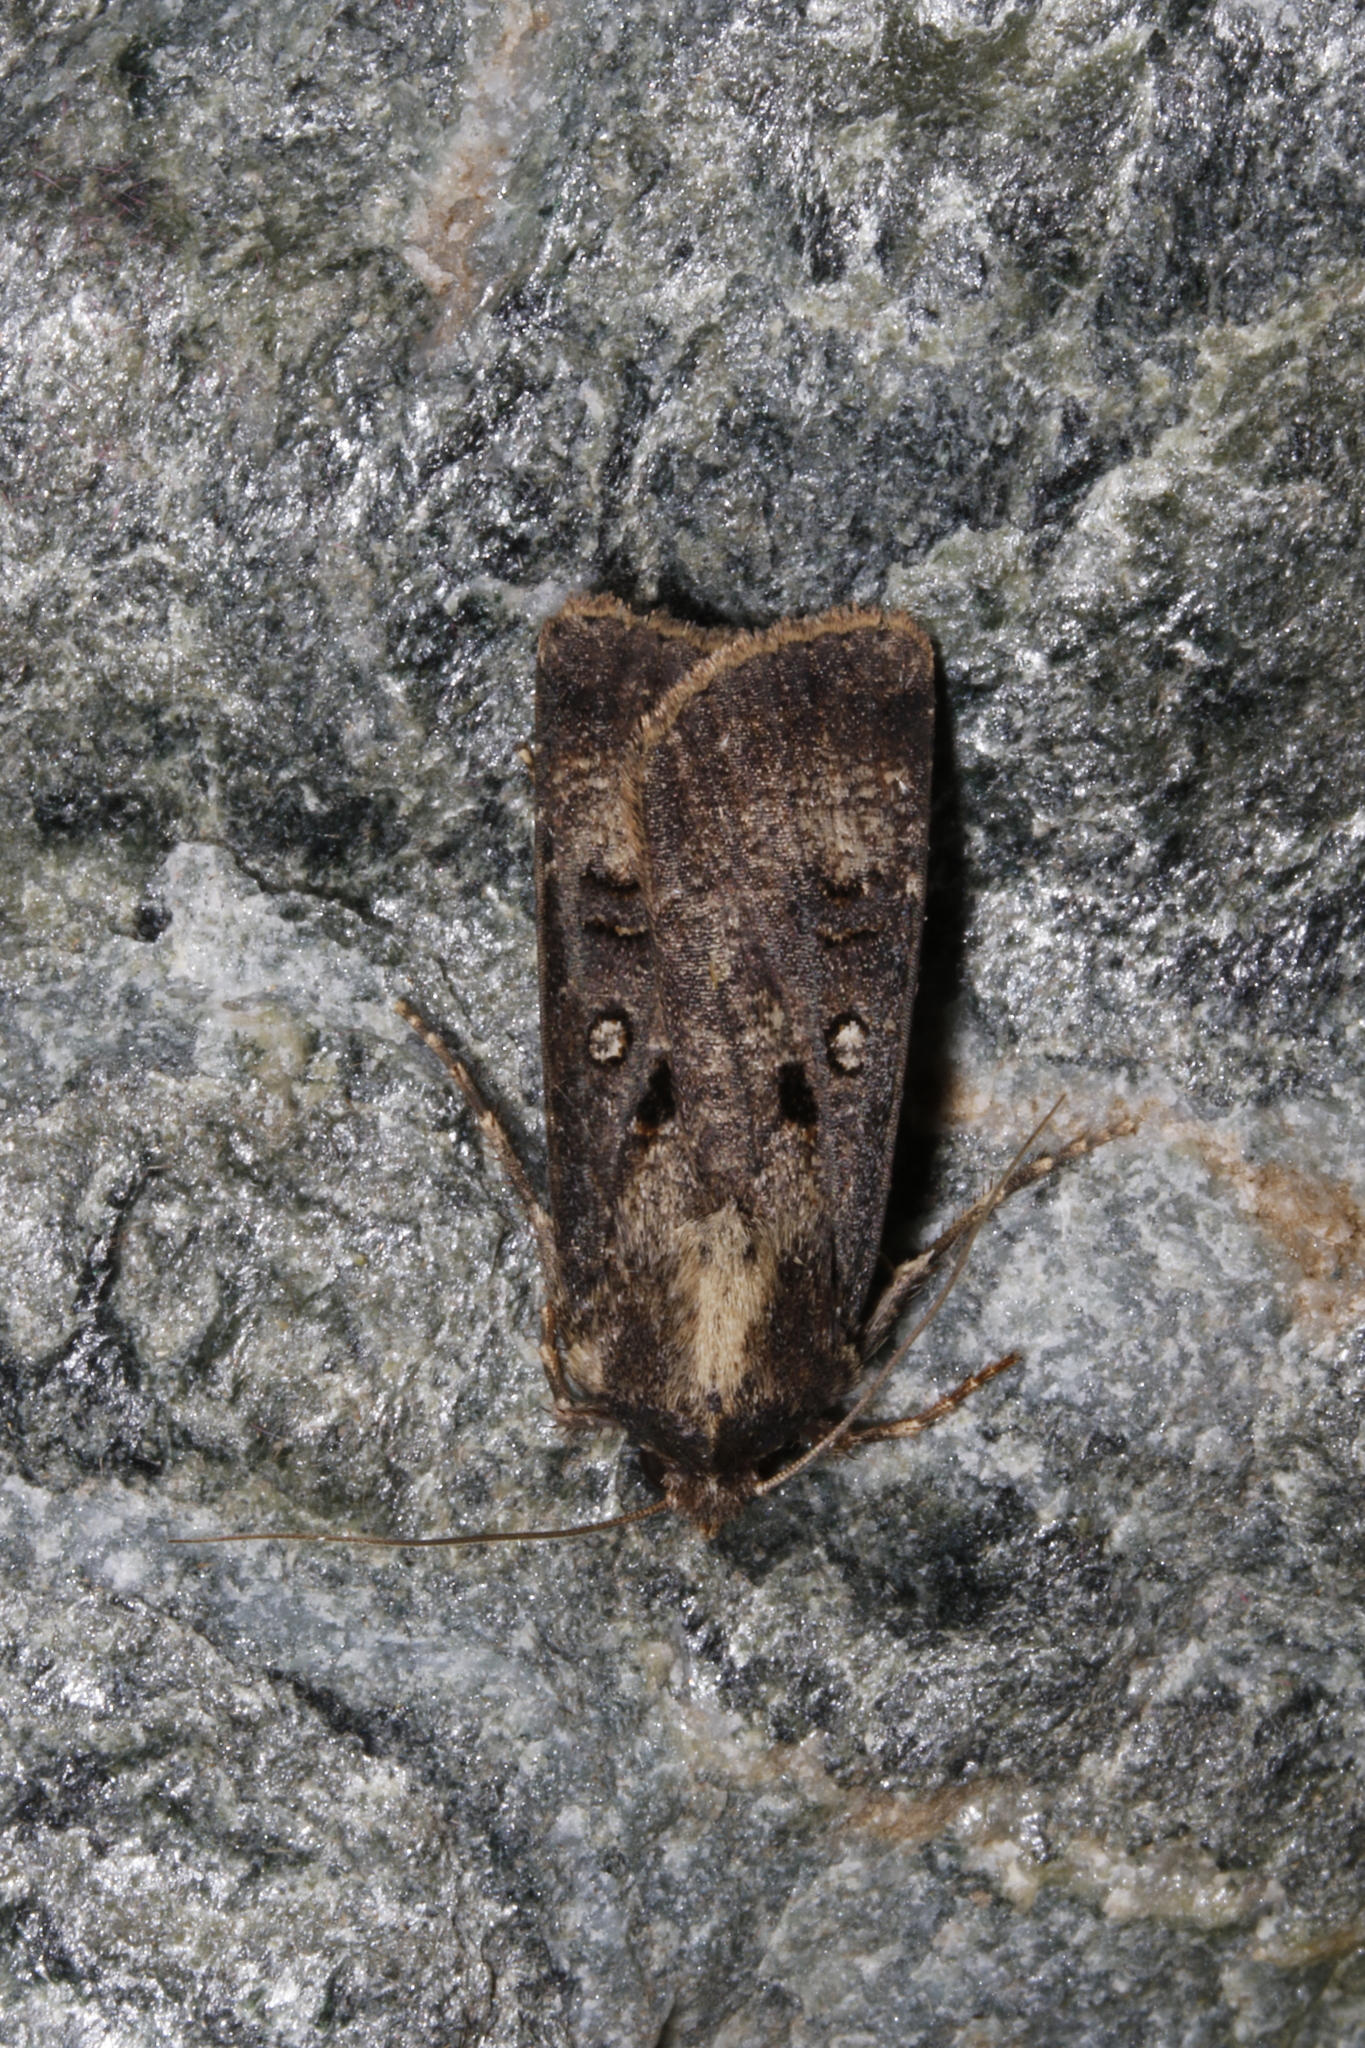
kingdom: Animalia
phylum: Arthropoda
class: Insecta
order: Lepidoptera
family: Noctuidae
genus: Agrotis
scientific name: Agrotis trux
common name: Crescent dart
